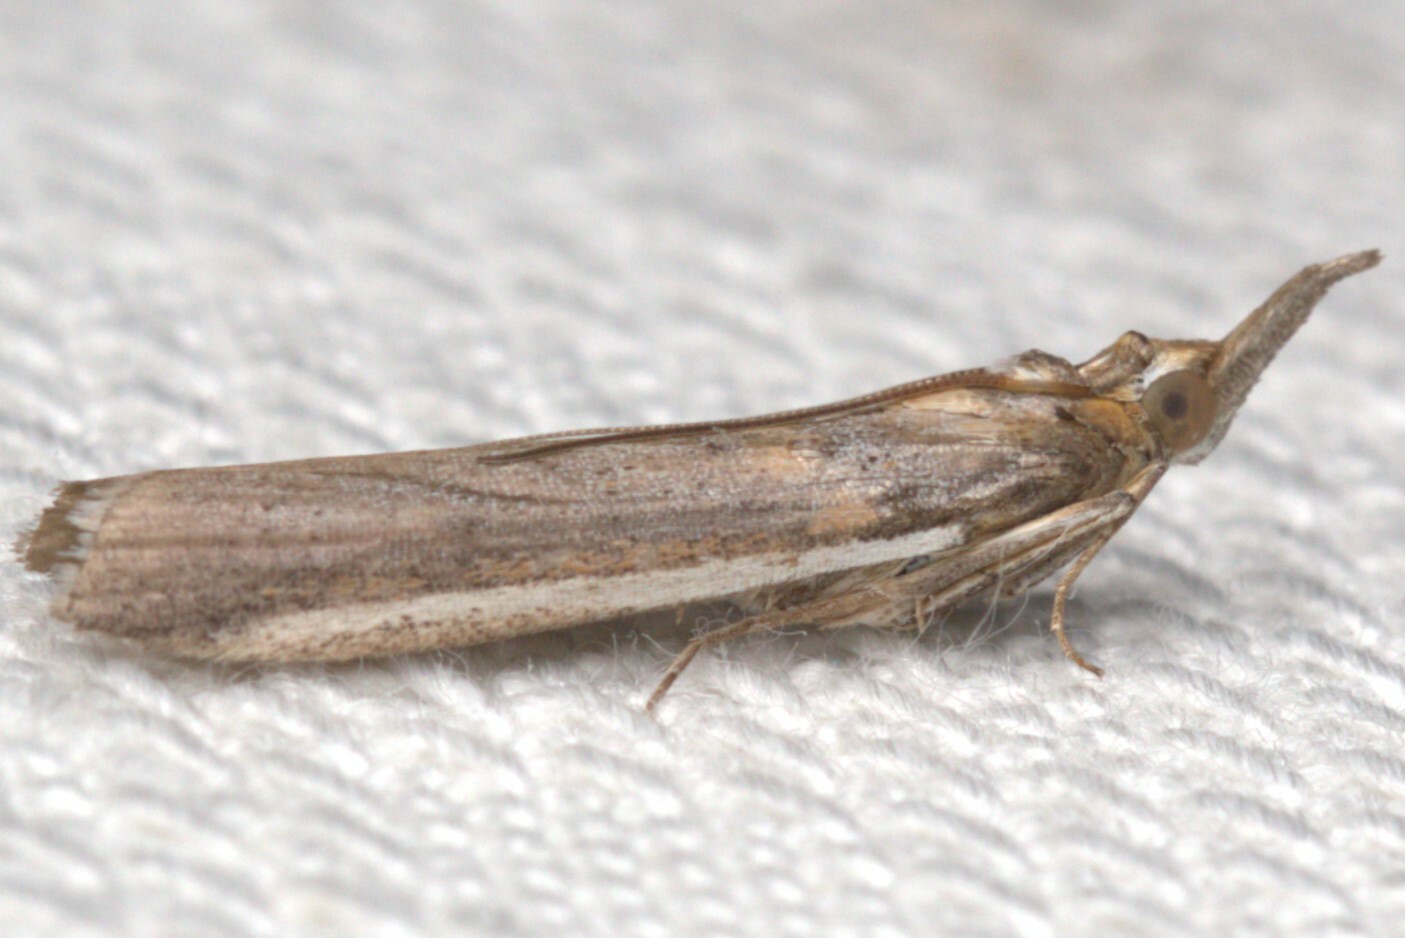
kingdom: Animalia
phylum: Arthropoda
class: Insecta
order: Lepidoptera
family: Pyralidae
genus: Etiella
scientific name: Etiella behrii
